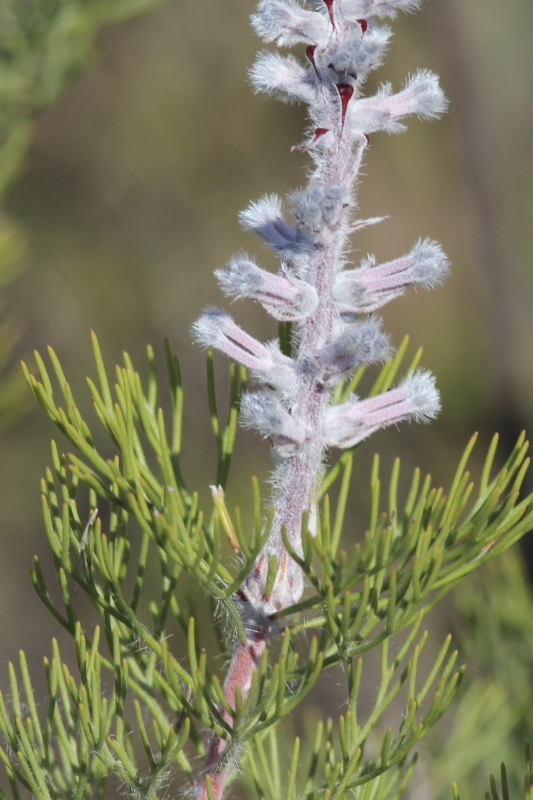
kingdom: Plantae
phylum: Tracheophyta
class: Magnoliopsida
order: Proteales
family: Proteaceae
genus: Paranomus
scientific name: Paranomus lagopus
